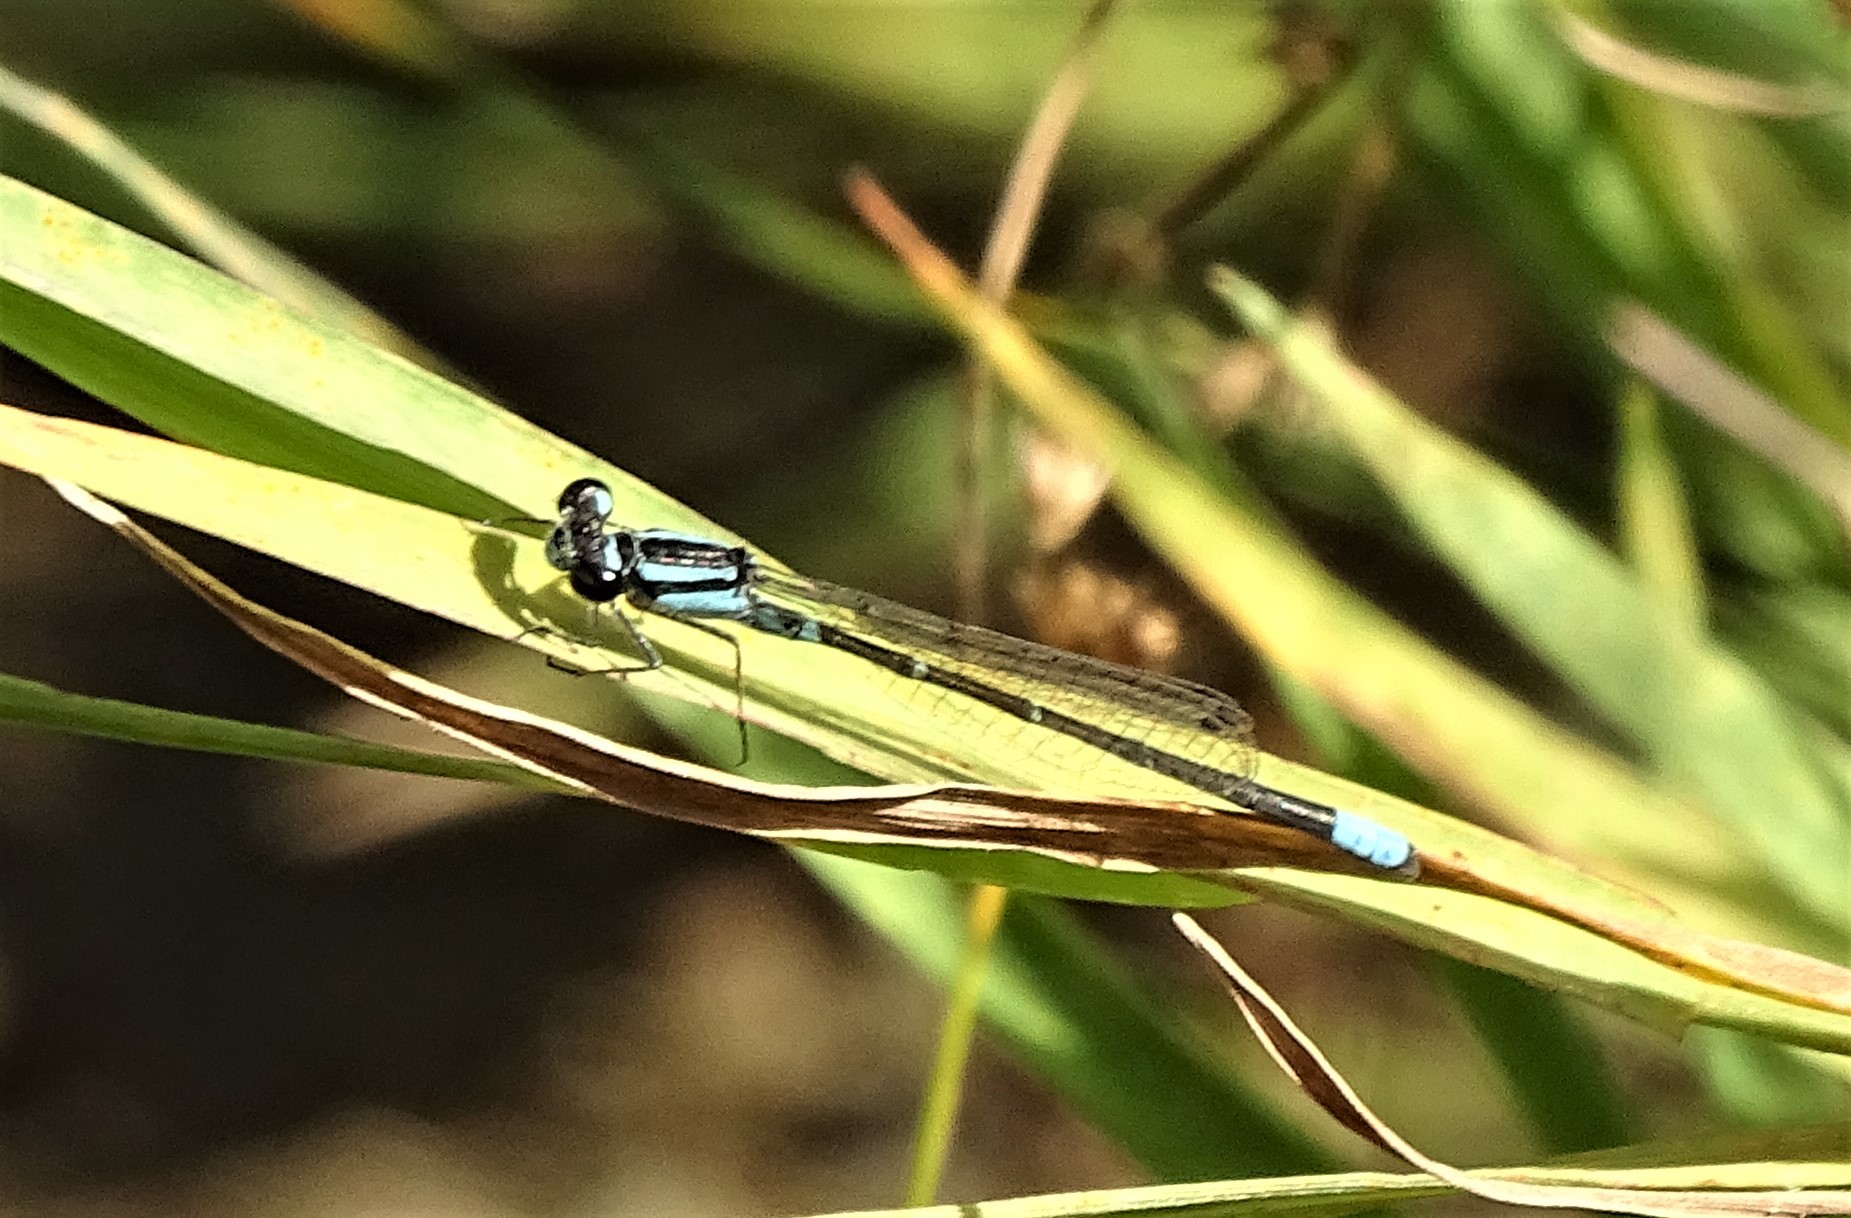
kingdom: Animalia
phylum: Arthropoda
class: Insecta
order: Odonata
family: Coenagrionidae
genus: Enallagma
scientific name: Enallagma geminatum
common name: Skimming bluet
